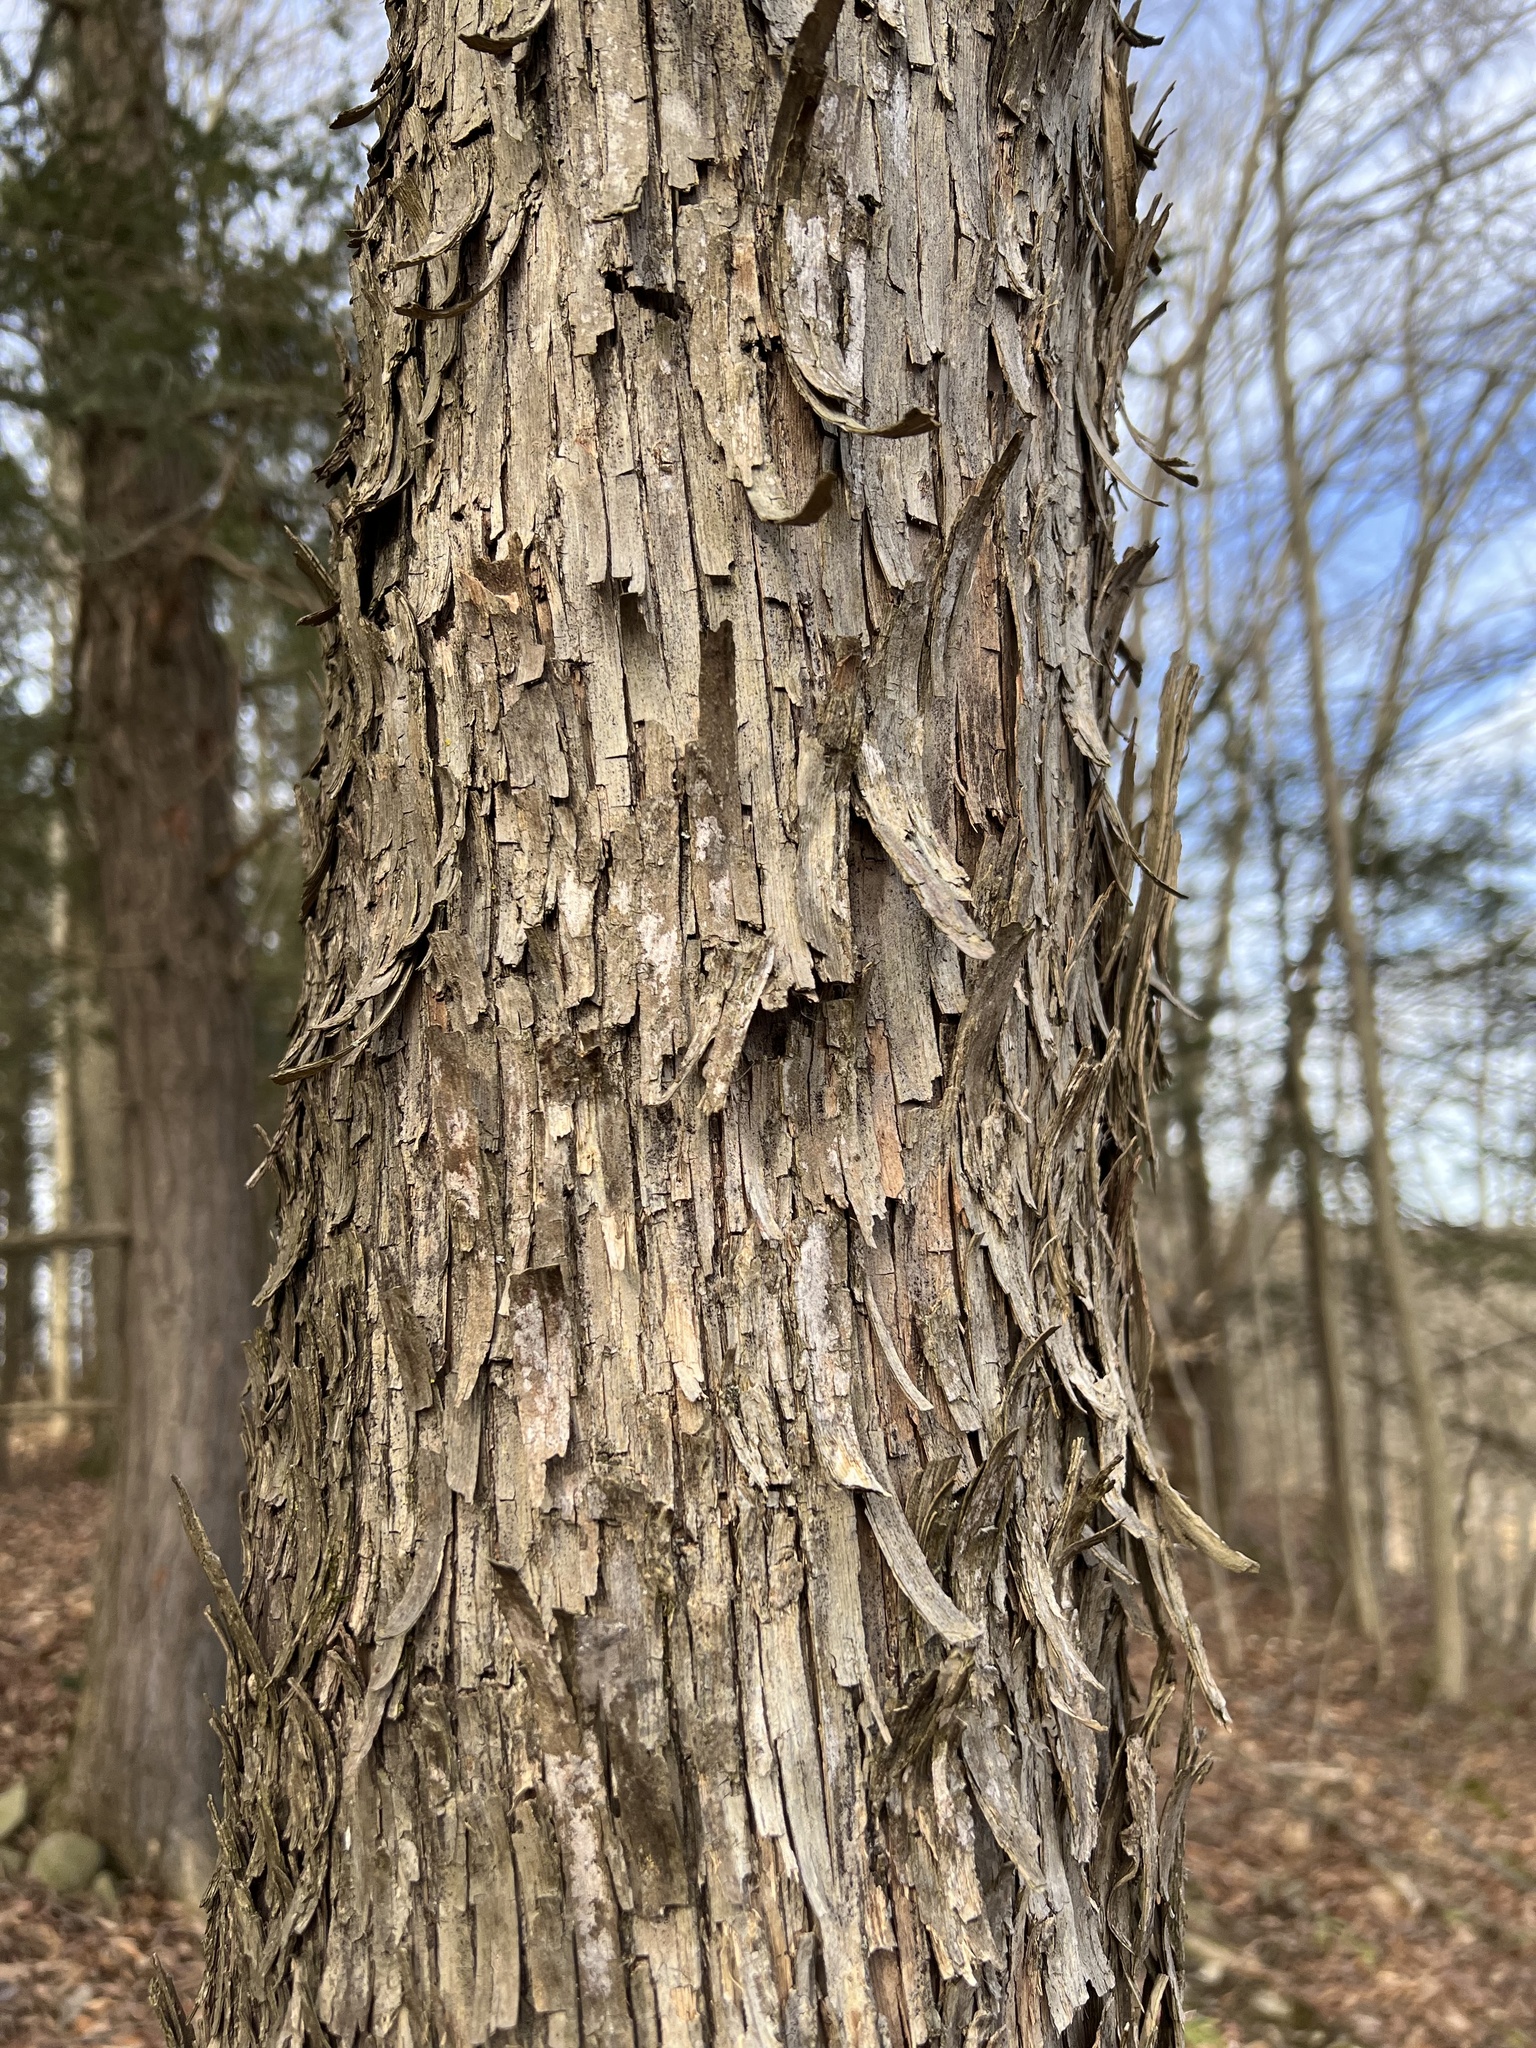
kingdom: Plantae
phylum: Tracheophyta
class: Magnoliopsida
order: Fagales
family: Betulaceae
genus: Ostrya
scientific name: Ostrya virginiana
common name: Ironwood
